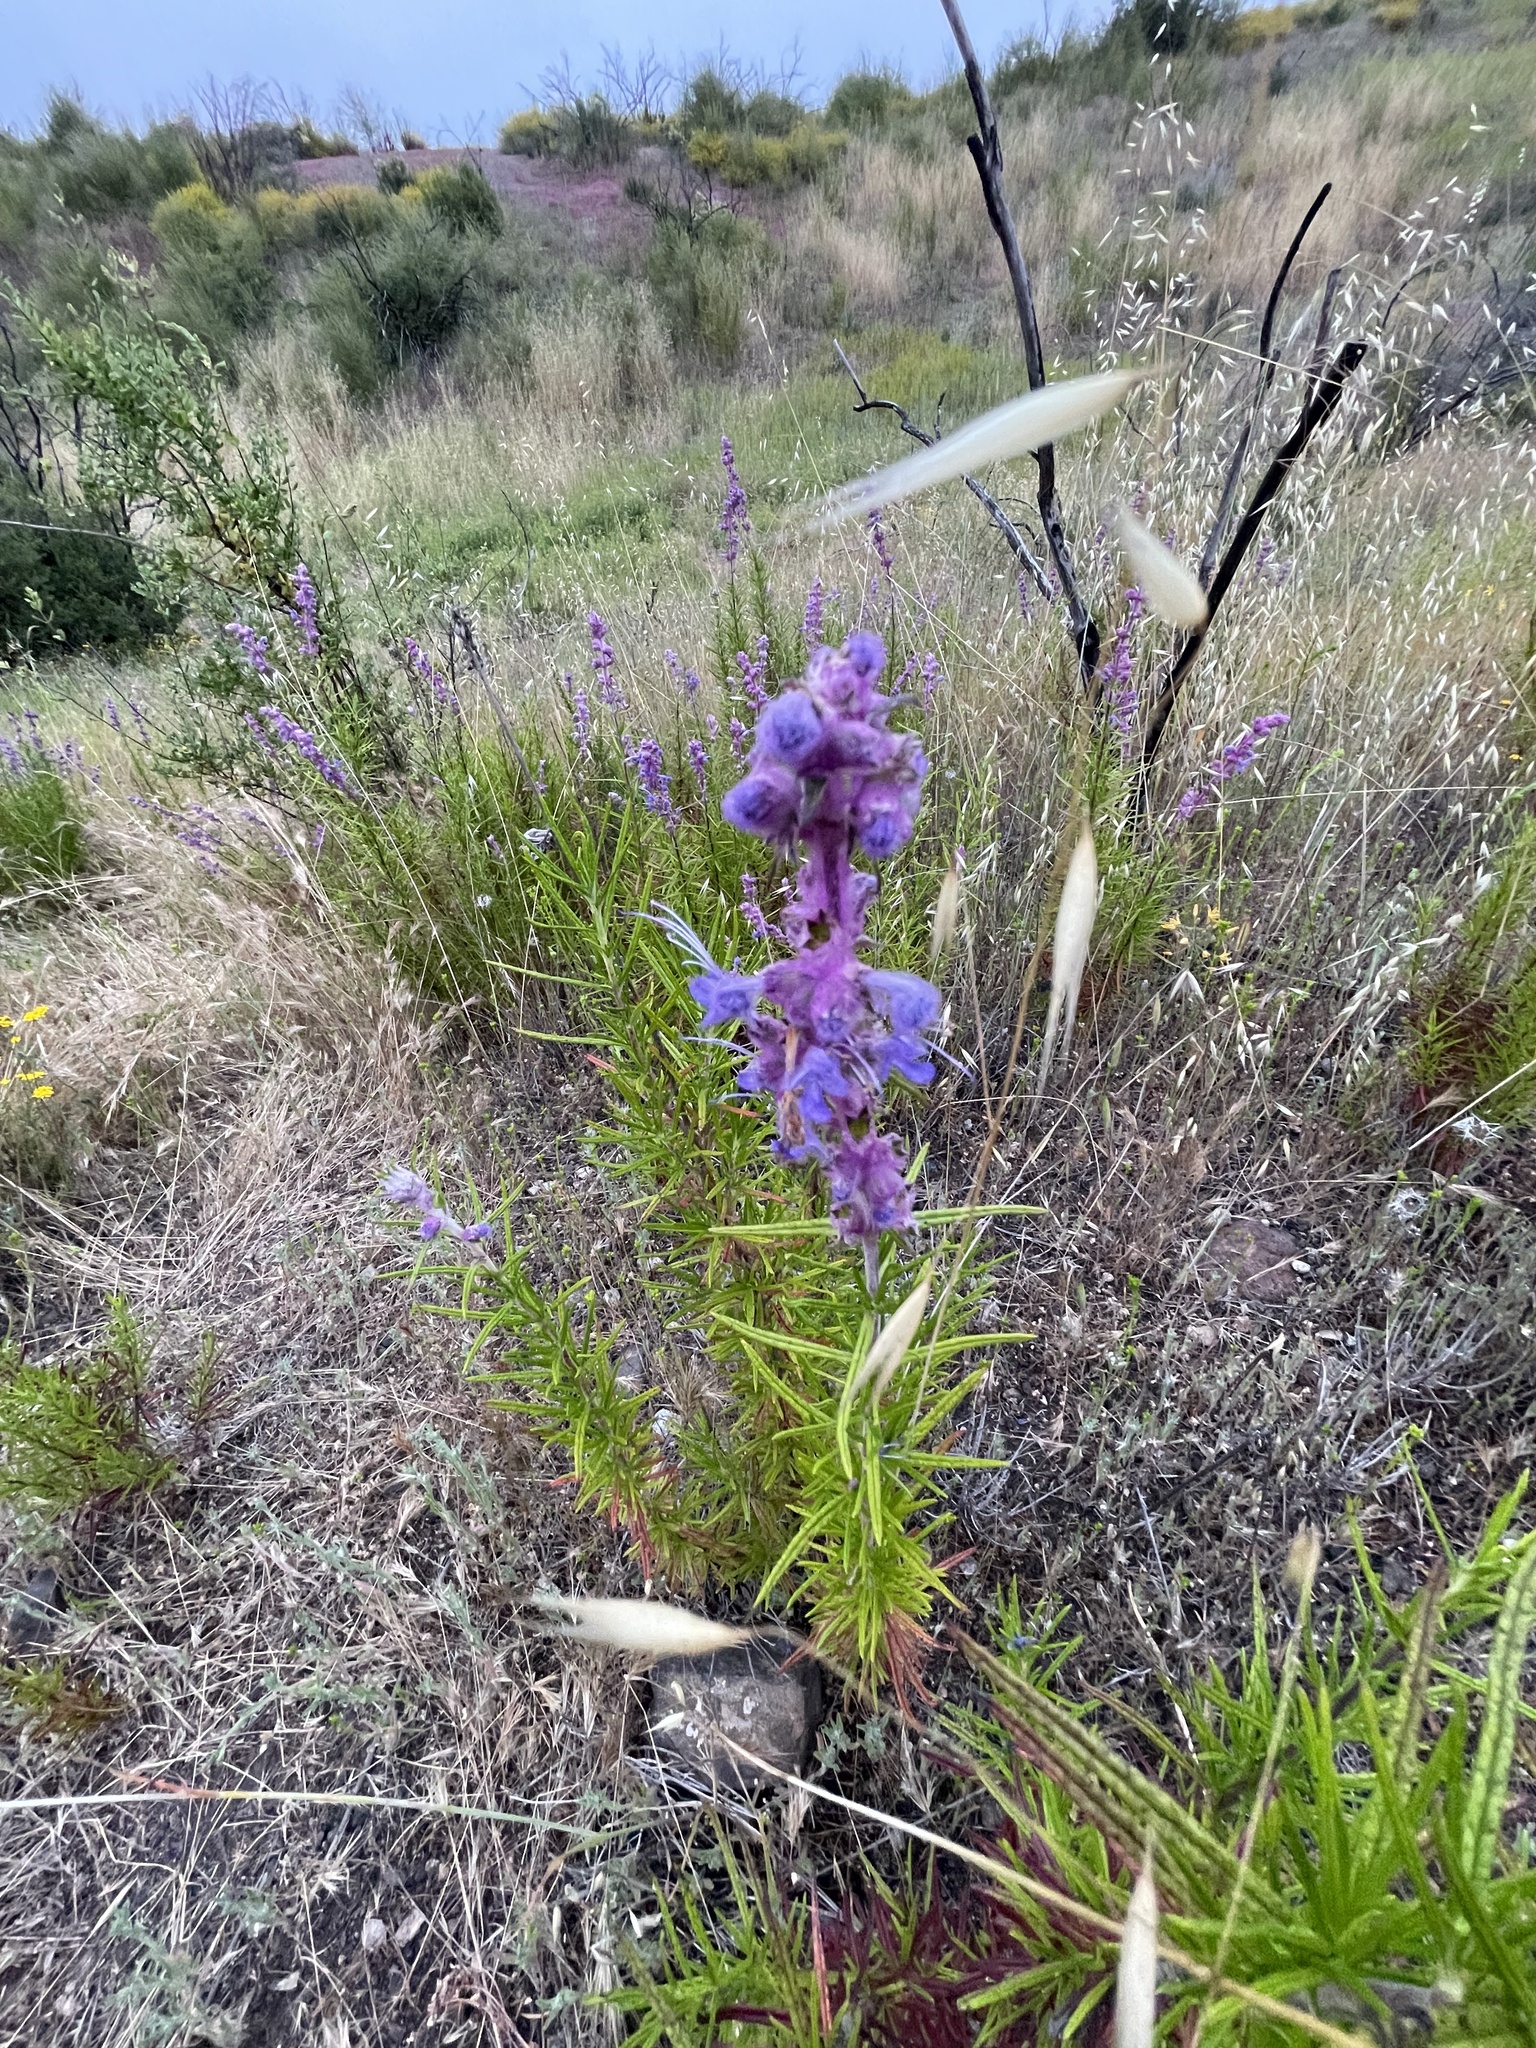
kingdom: Plantae
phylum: Tracheophyta
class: Magnoliopsida
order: Lamiales
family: Lamiaceae
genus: Trichostema
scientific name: Trichostema lanatum
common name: Woolly bluecurls
